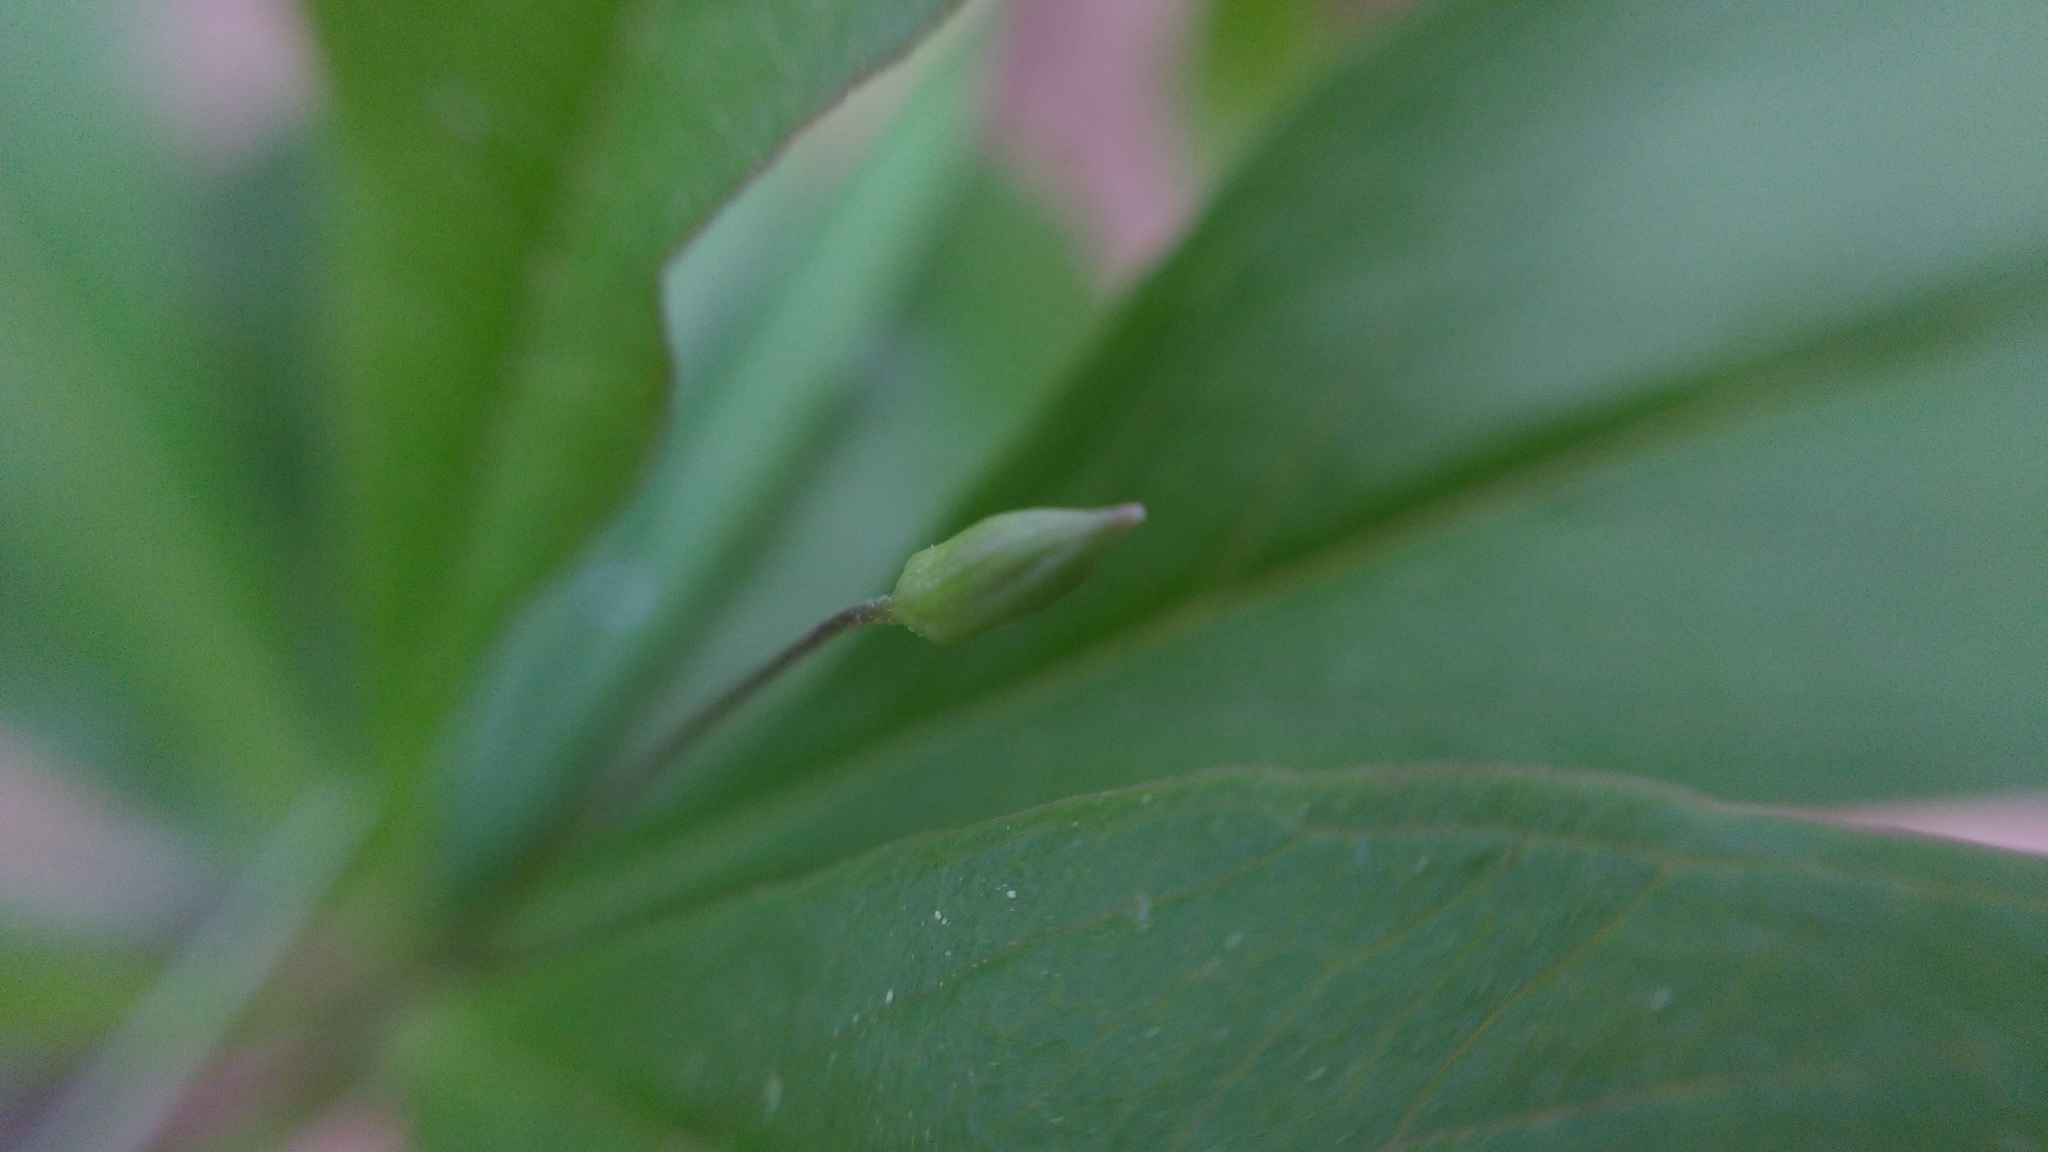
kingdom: Plantae
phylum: Tracheophyta
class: Magnoliopsida
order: Ericales
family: Primulaceae
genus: Lysimachia
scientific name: Lysimachia borealis
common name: American starflower
